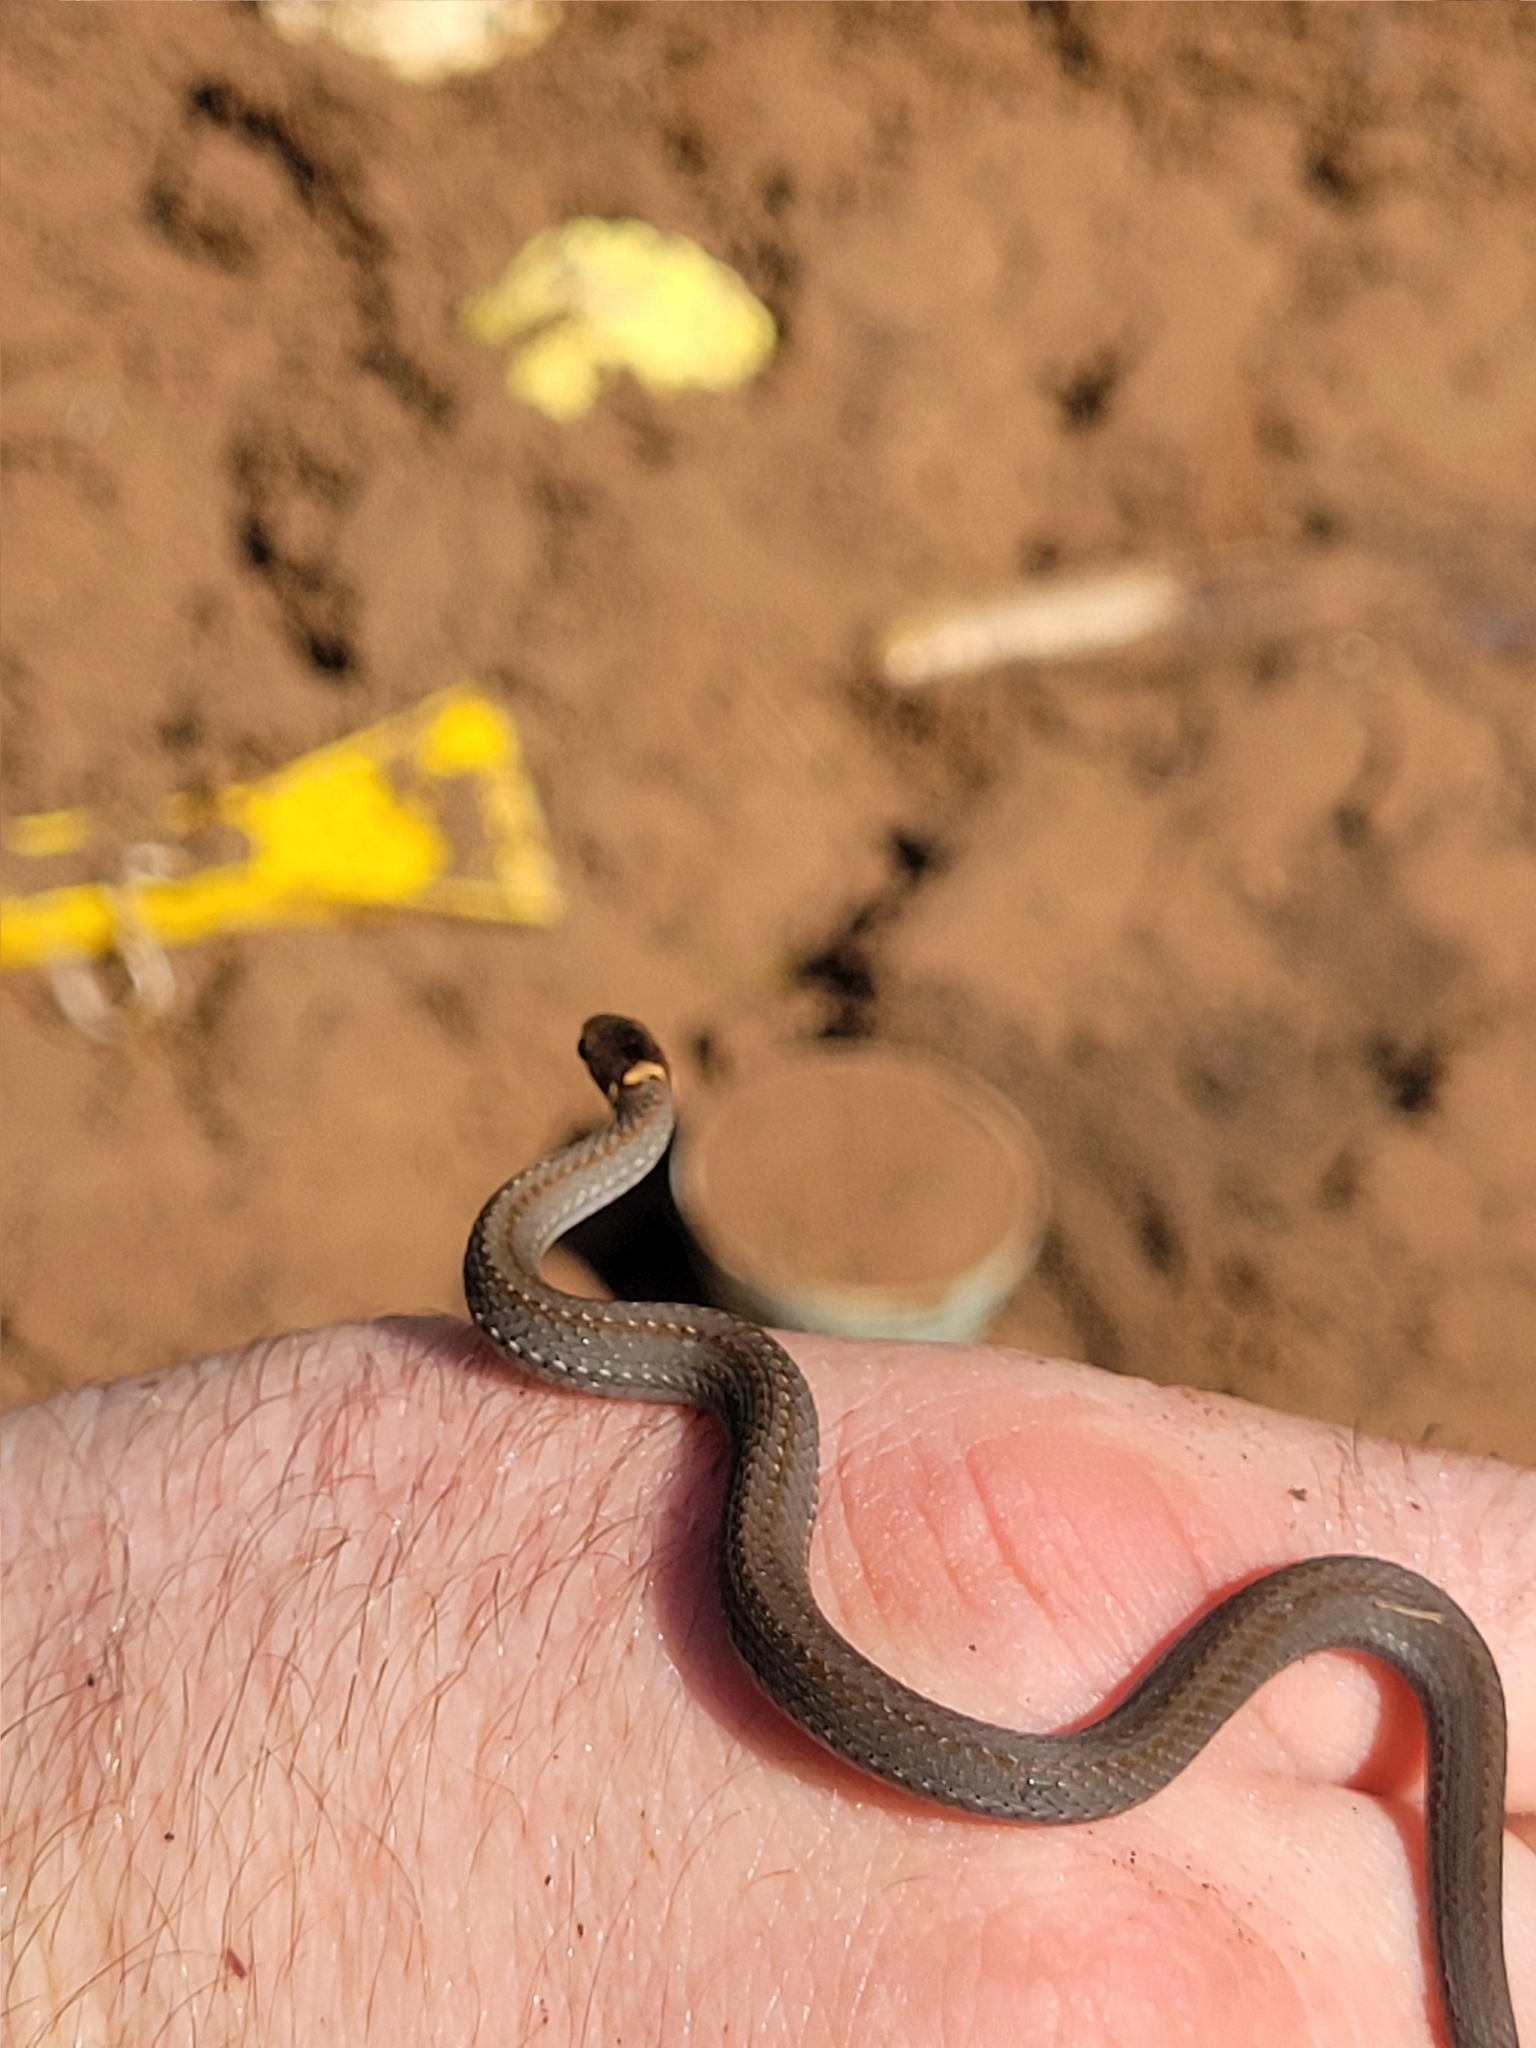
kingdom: Animalia
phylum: Chordata
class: Squamata
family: Colubridae
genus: Storeria
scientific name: Storeria occipitomaculata
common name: Redbelly snake
